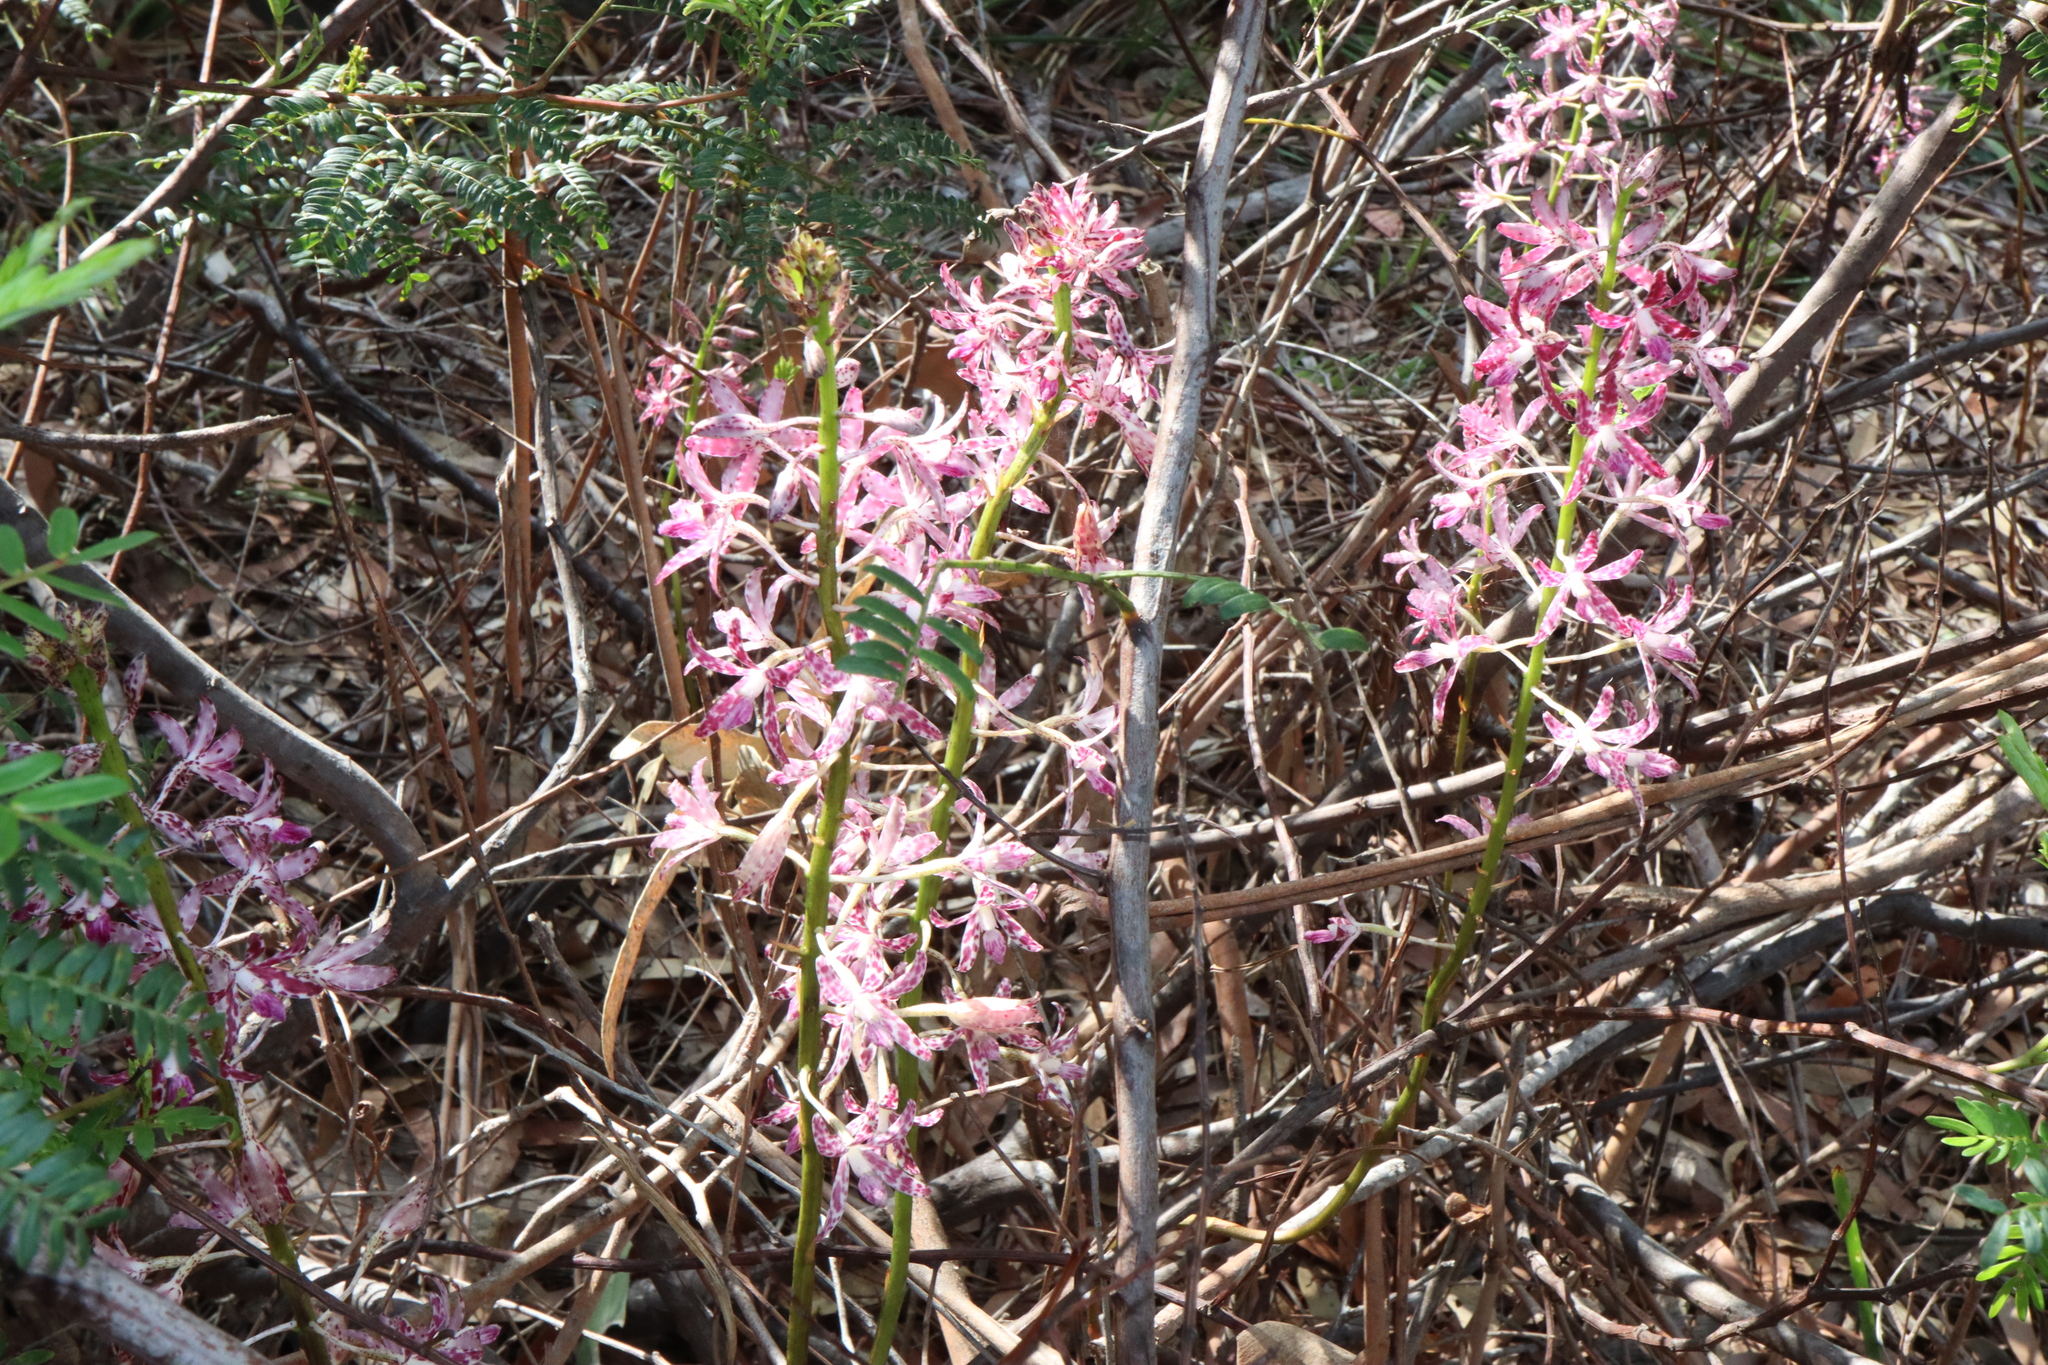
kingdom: Plantae
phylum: Tracheophyta
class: Liliopsida
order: Asparagales
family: Orchidaceae
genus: Dipodium
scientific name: Dipodium variegatum
